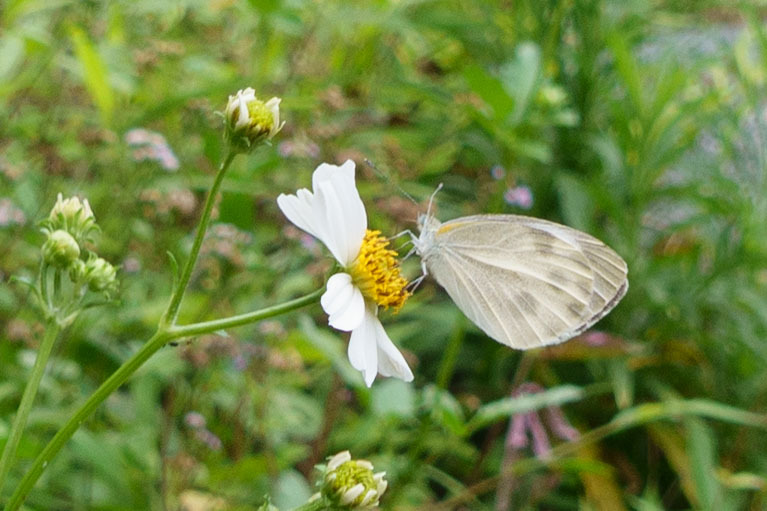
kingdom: Animalia
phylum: Arthropoda
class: Insecta
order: Lepidoptera
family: Pieridae
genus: Pieris
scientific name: Pieris canidia
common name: Indian cabbage white
